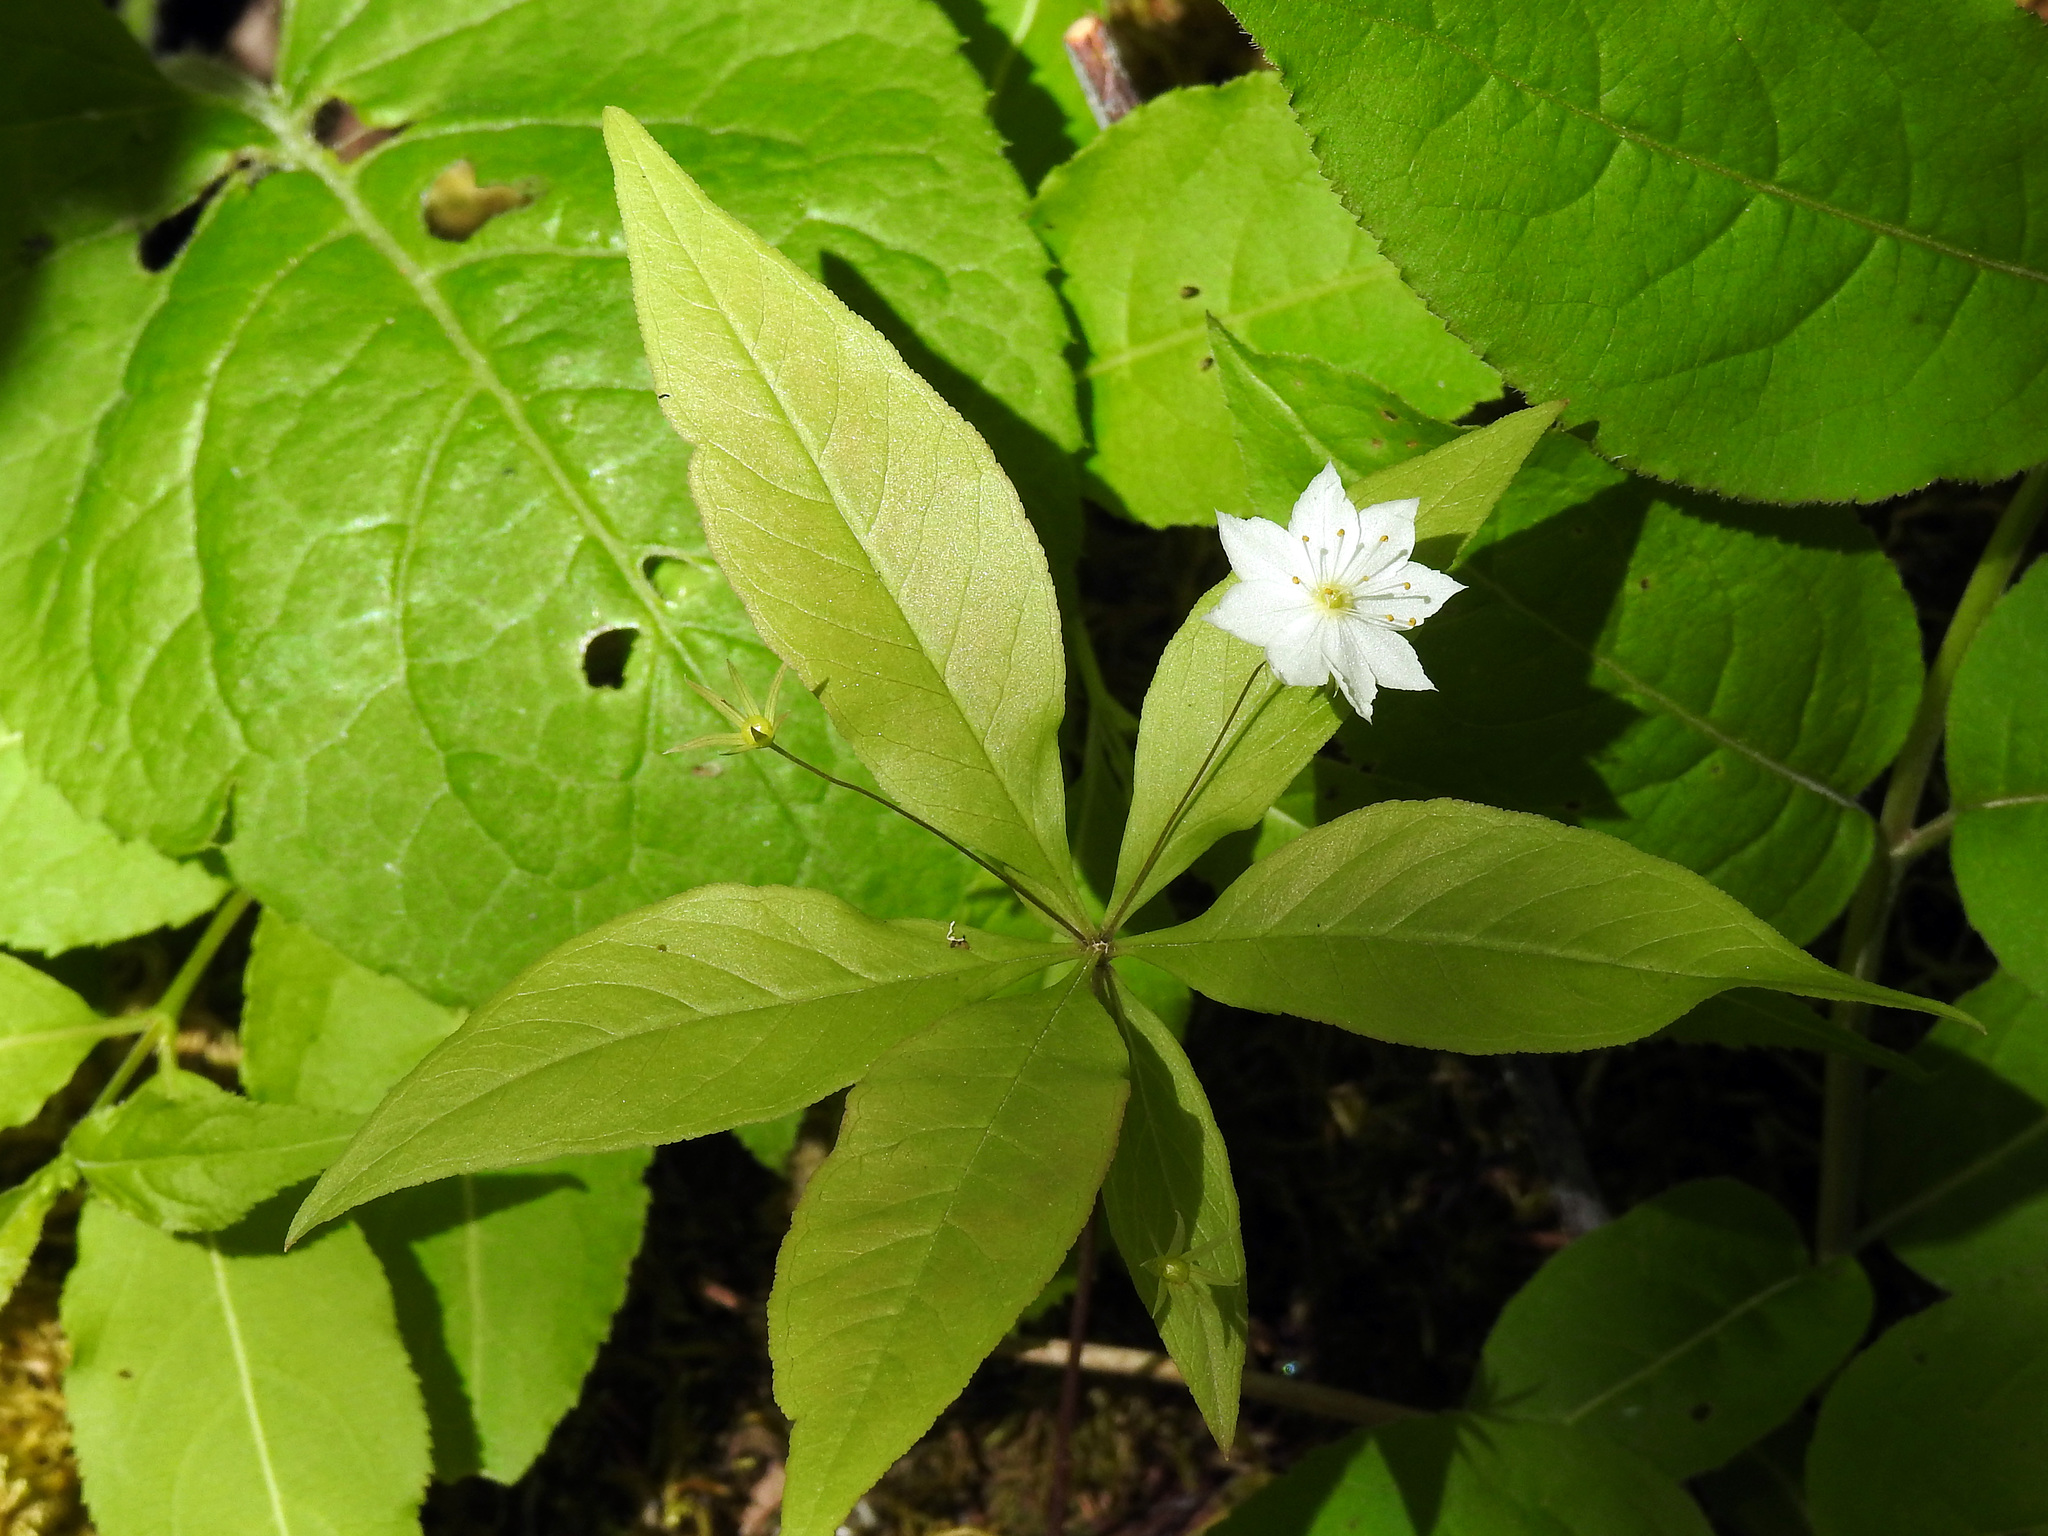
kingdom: Plantae
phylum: Tracheophyta
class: Magnoliopsida
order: Ericales
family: Primulaceae
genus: Lysimachia
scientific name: Lysimachia borealis
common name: American starflower
